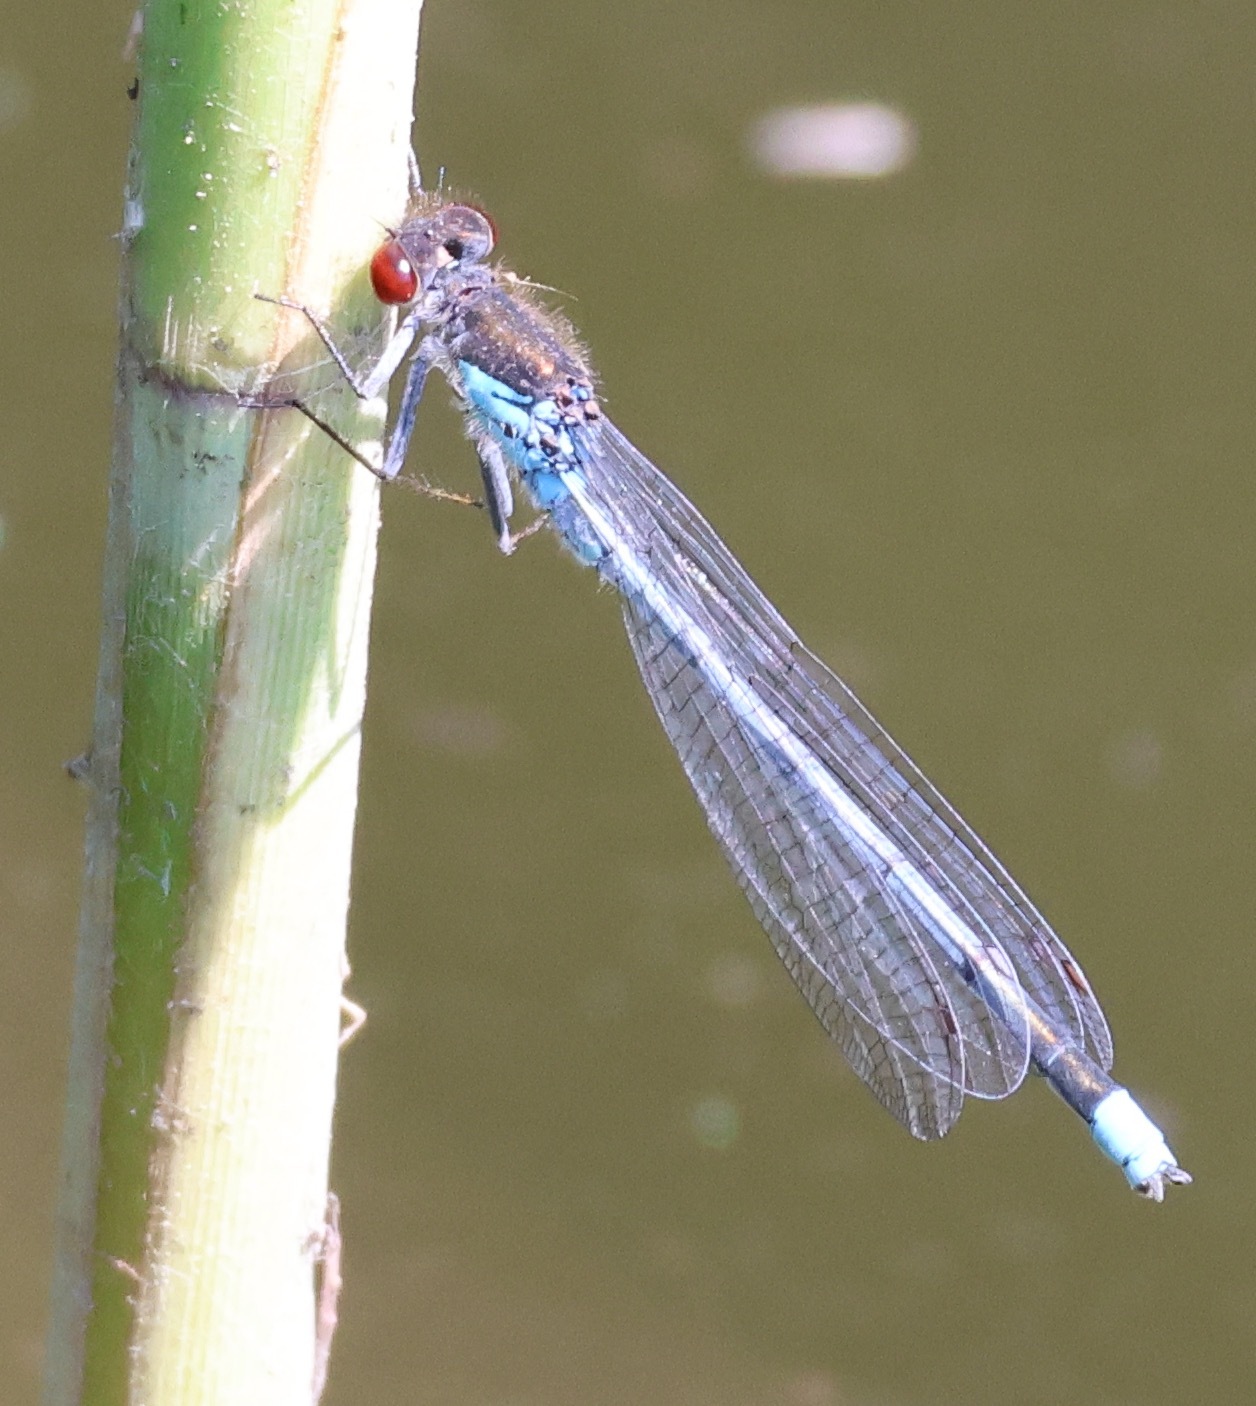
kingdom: Animalia
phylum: Arthropoda
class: Insecta
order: Odonata
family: Coenagrionidae
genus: Erythromma
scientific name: Erythromma najas
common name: Red-eyed damselfly
